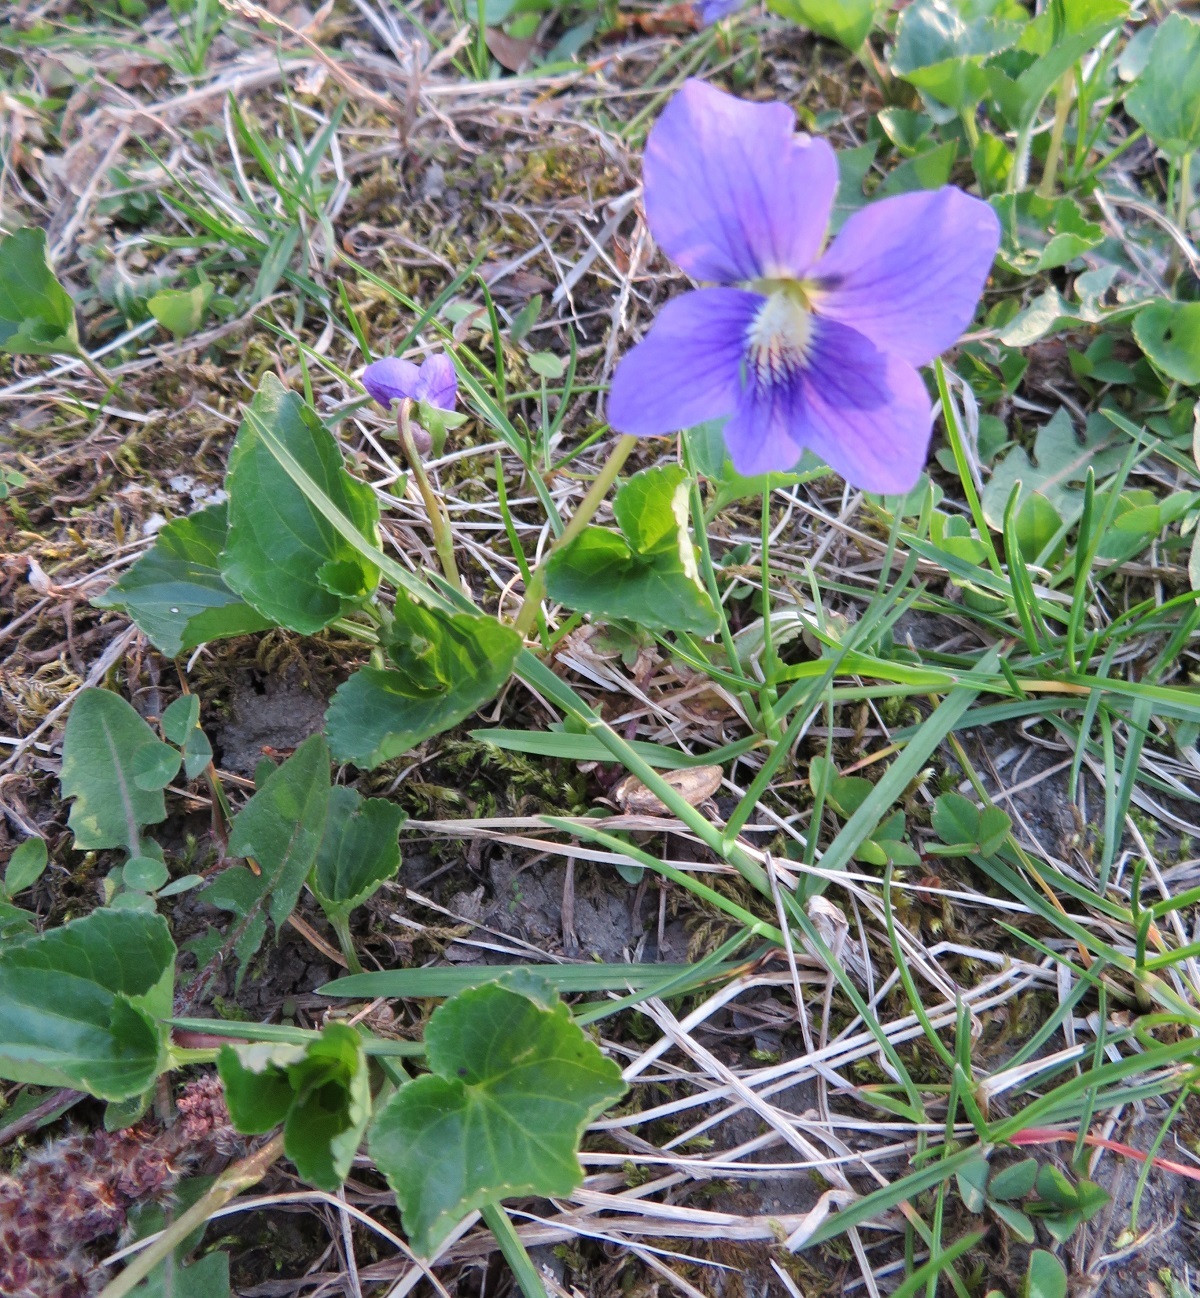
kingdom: Plantae
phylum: Tracheophyta
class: Magnoliopsida
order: Malpighiales
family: Violaceae
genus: Viola
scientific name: Viola sororia
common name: Dooryard violet
